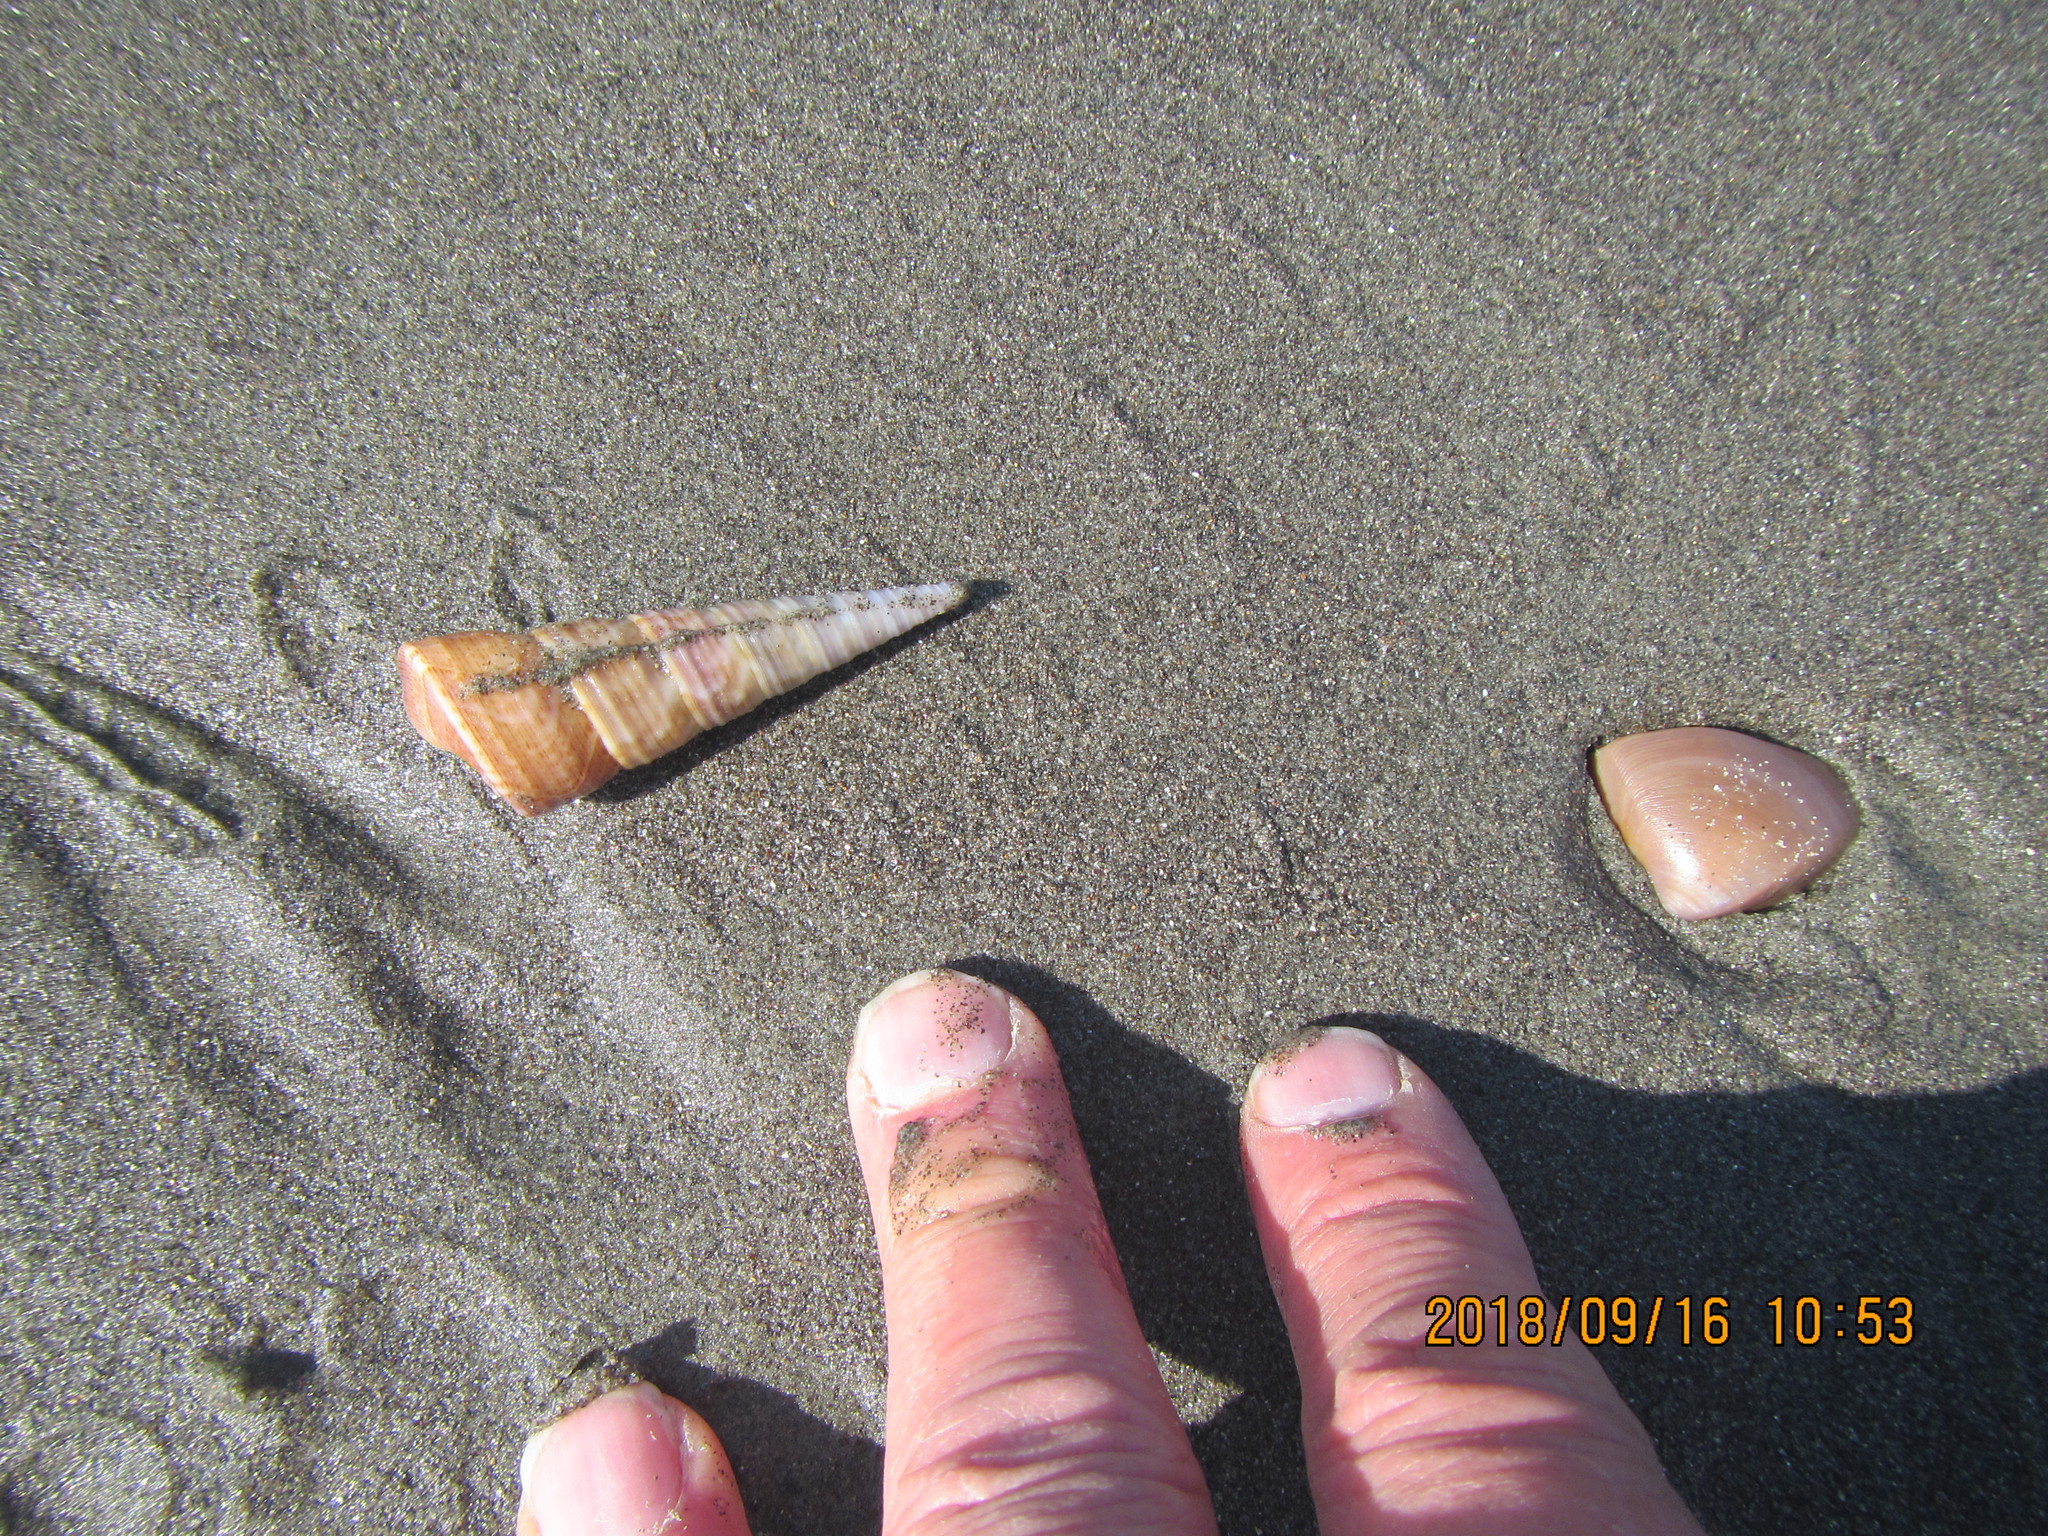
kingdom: Animalia
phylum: Mollusca
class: Gastropoda
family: Turritellidae
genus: Maoricolpus
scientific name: Maoricolpus roseus
